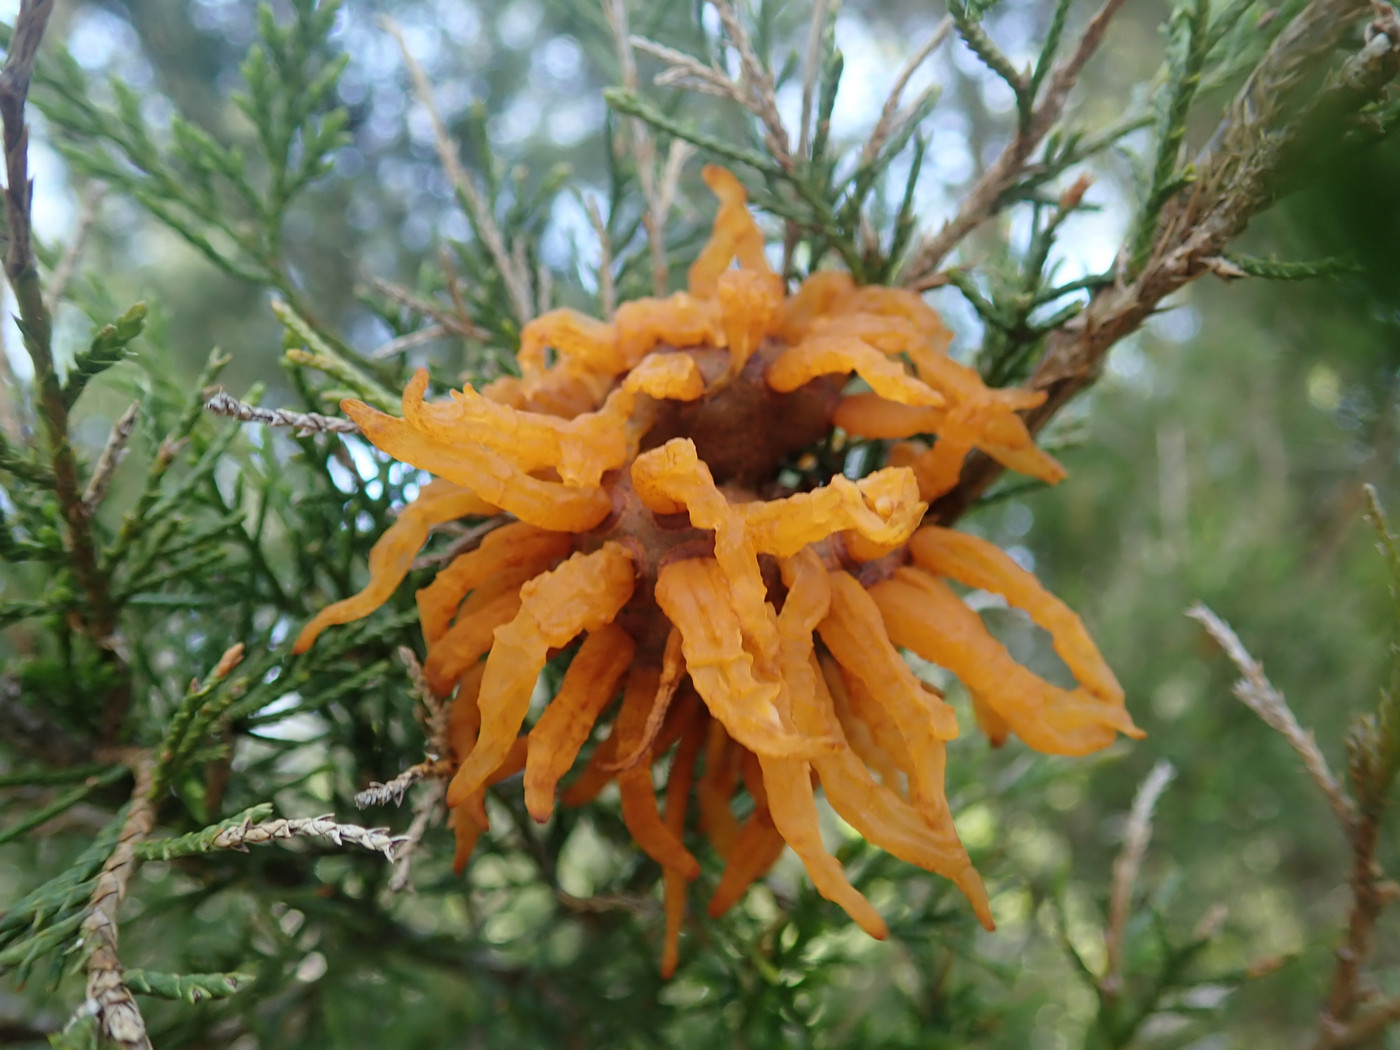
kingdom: Fungi
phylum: Basidiomycota
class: Pucciniomycetes
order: Pucciniales
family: Gymnosporangiaceae
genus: Gymnosporangium
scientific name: Gymnosporangium juniperi-virginianae
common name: Juniper-apple rust
